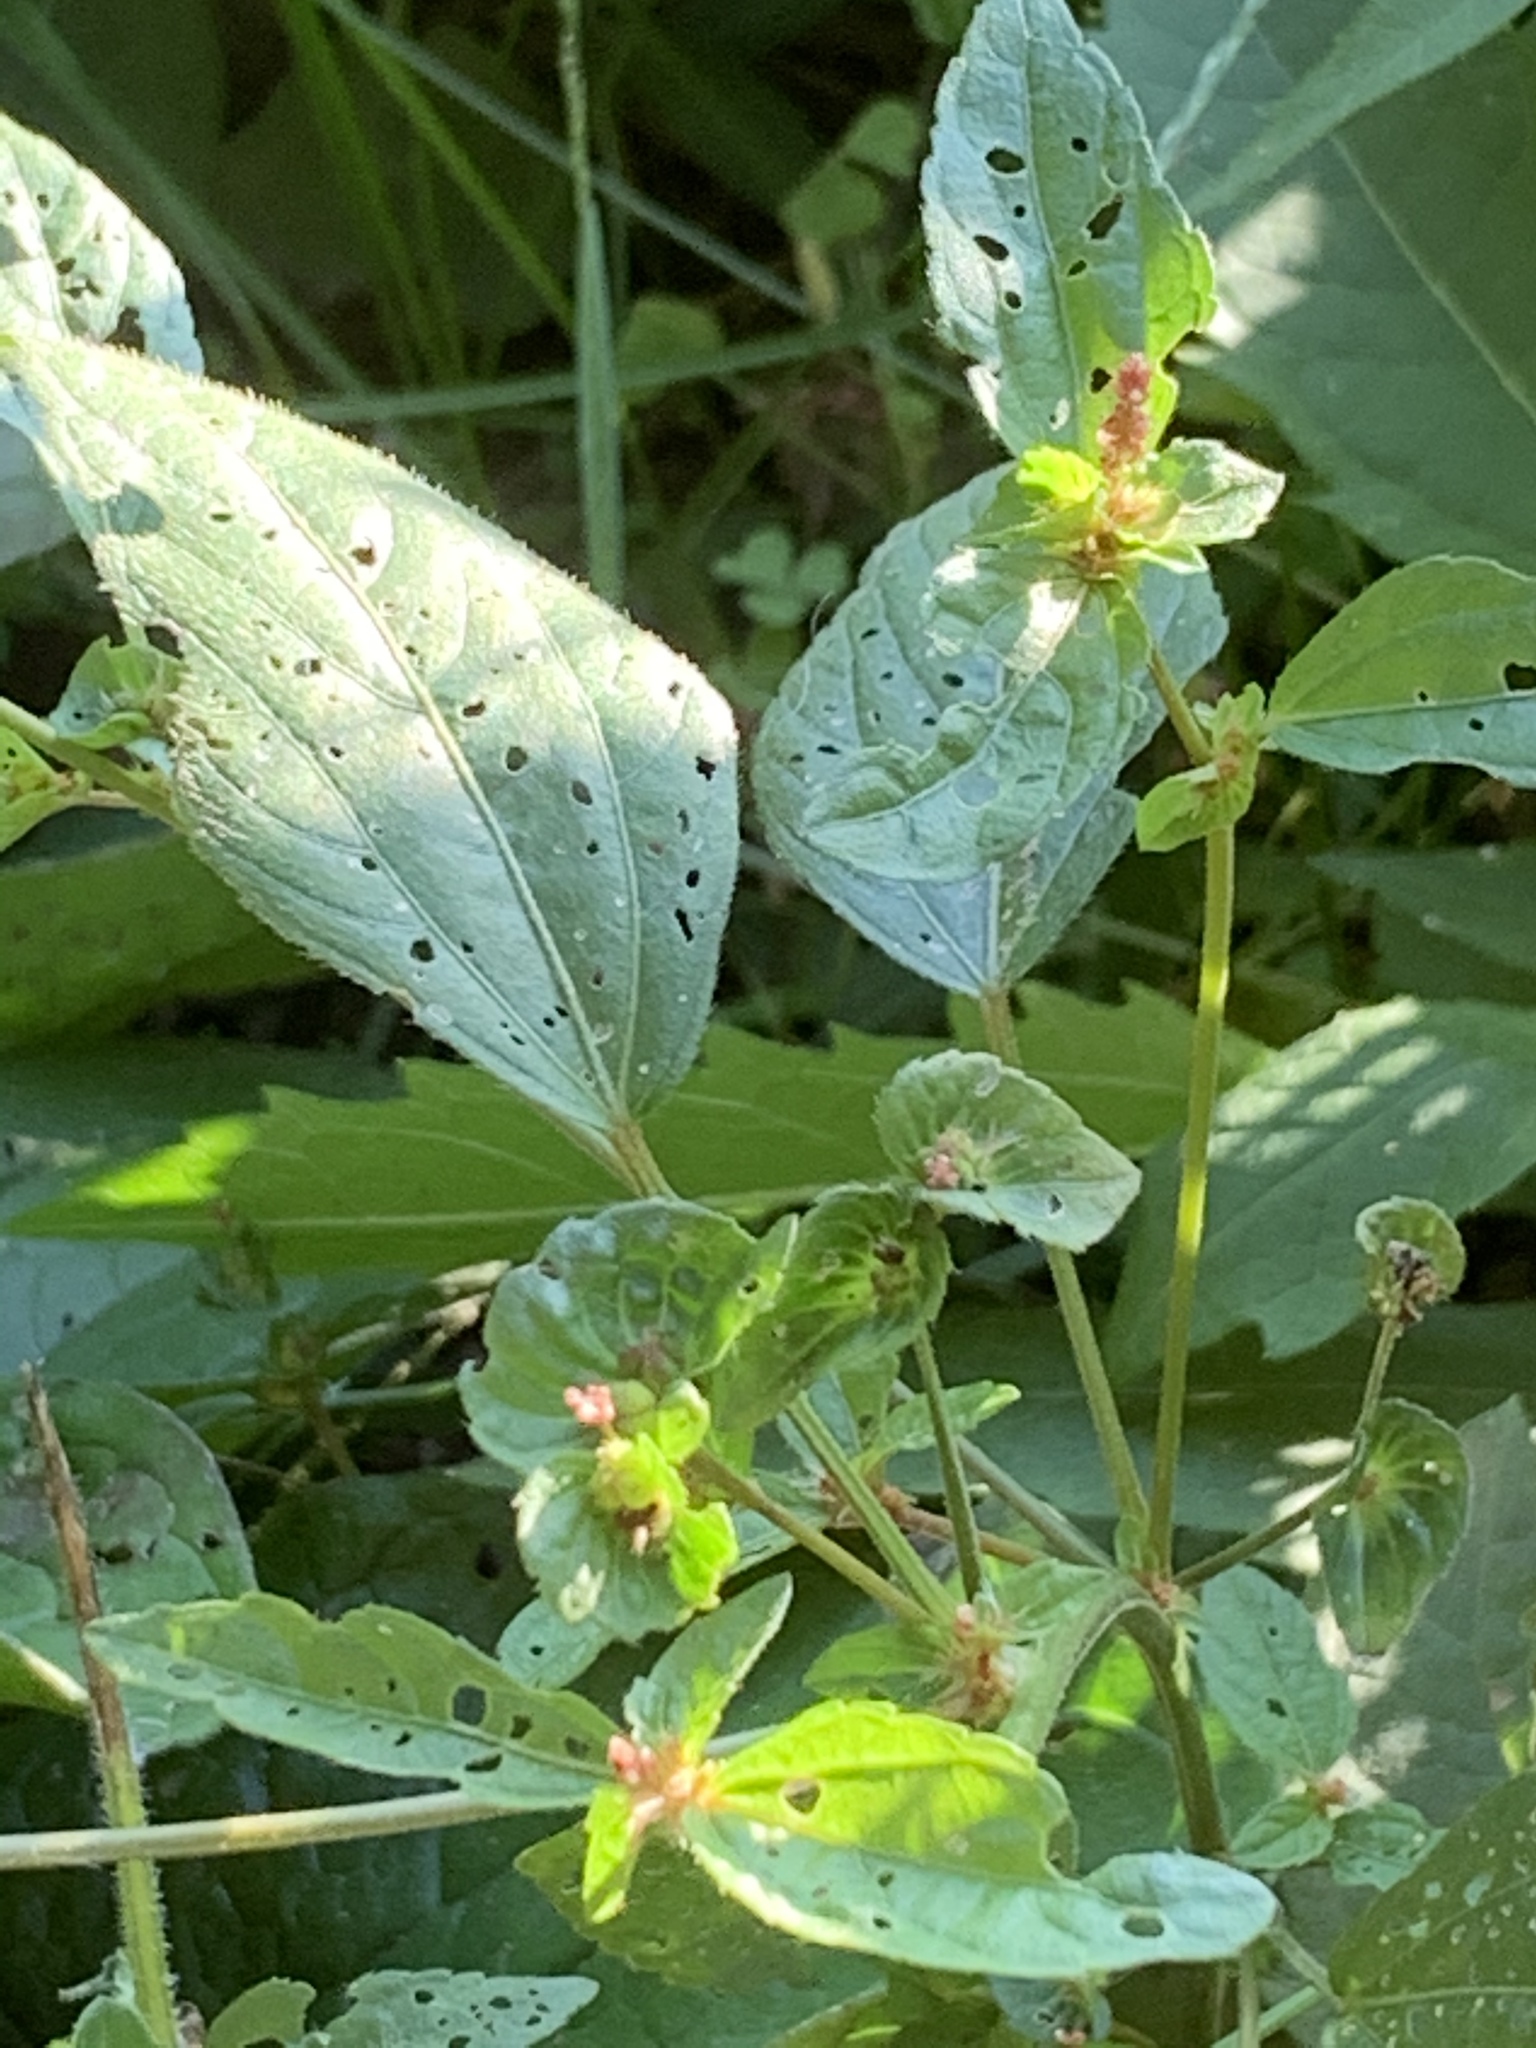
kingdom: Plantae
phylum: Tracheophyta
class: Magnoliopsida
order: Malpighiales
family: Euphorbiaceae
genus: Acalypha
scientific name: Acalypha australis
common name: Asian copperleaf
